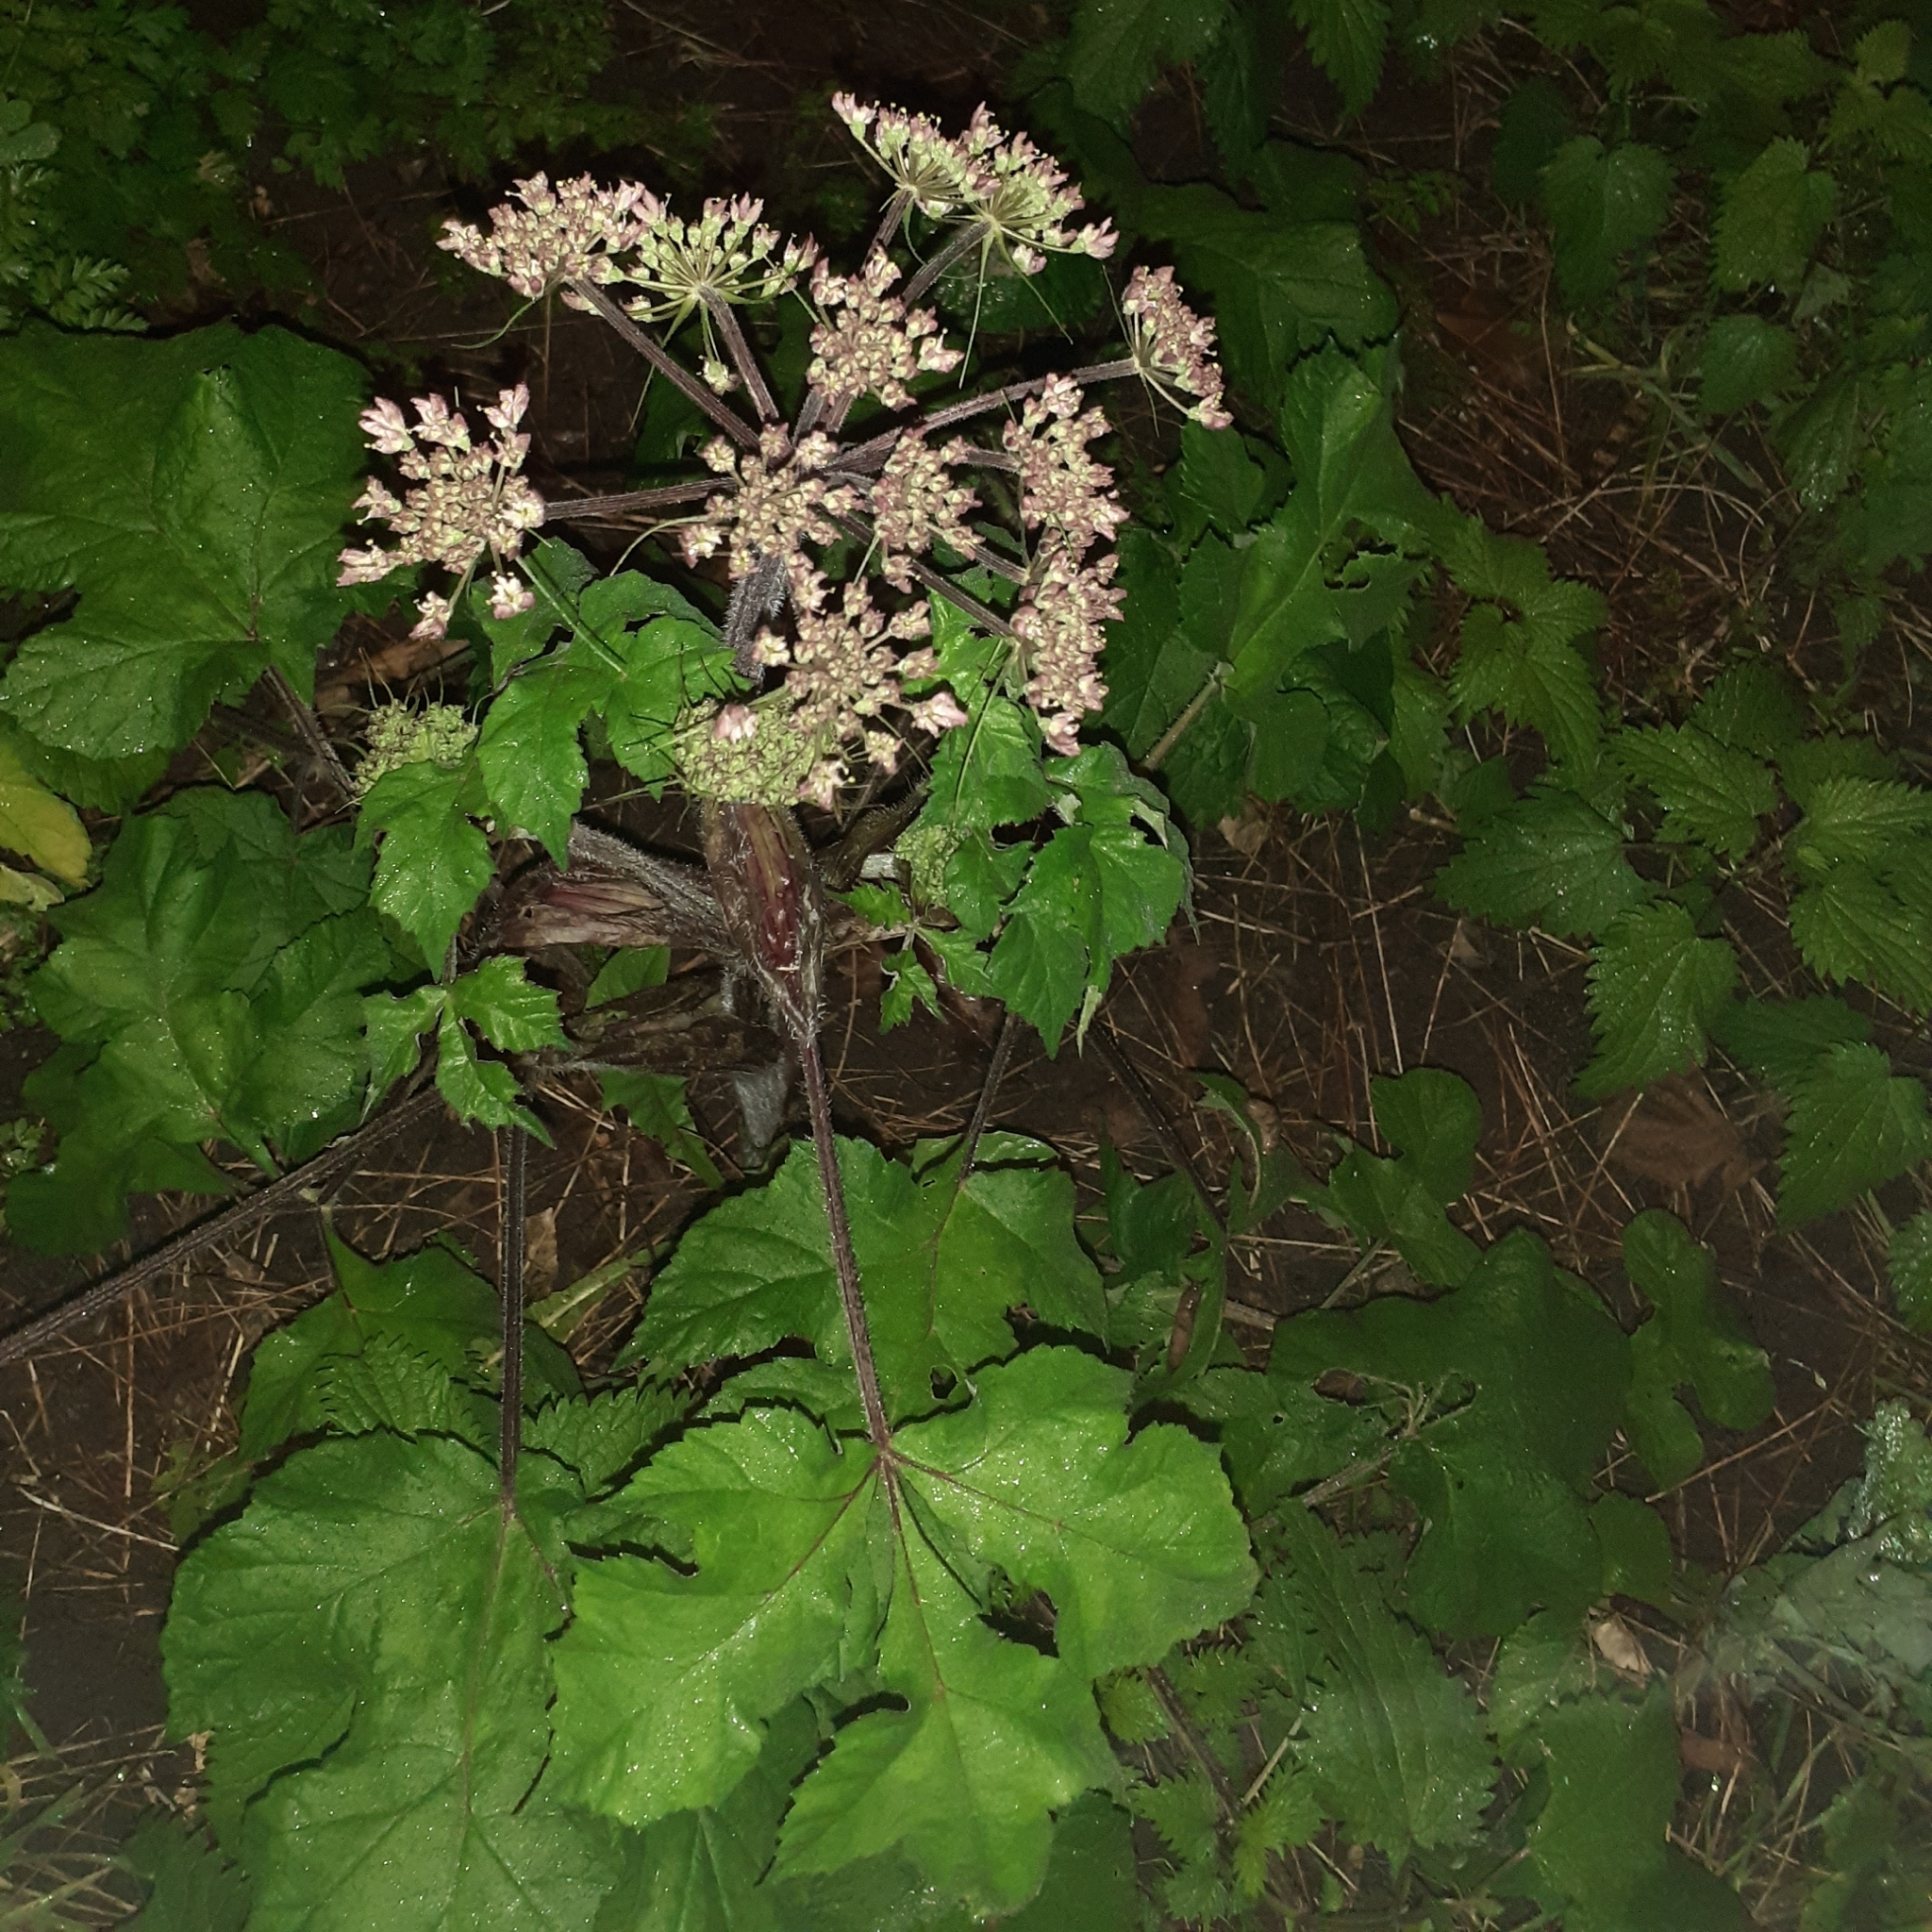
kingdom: Plantae
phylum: Tracheophyta
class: Magnoliopsida
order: Apiales
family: Apiaceae
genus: Heracleum
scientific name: Heracleum sphondylium
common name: Hogweed
